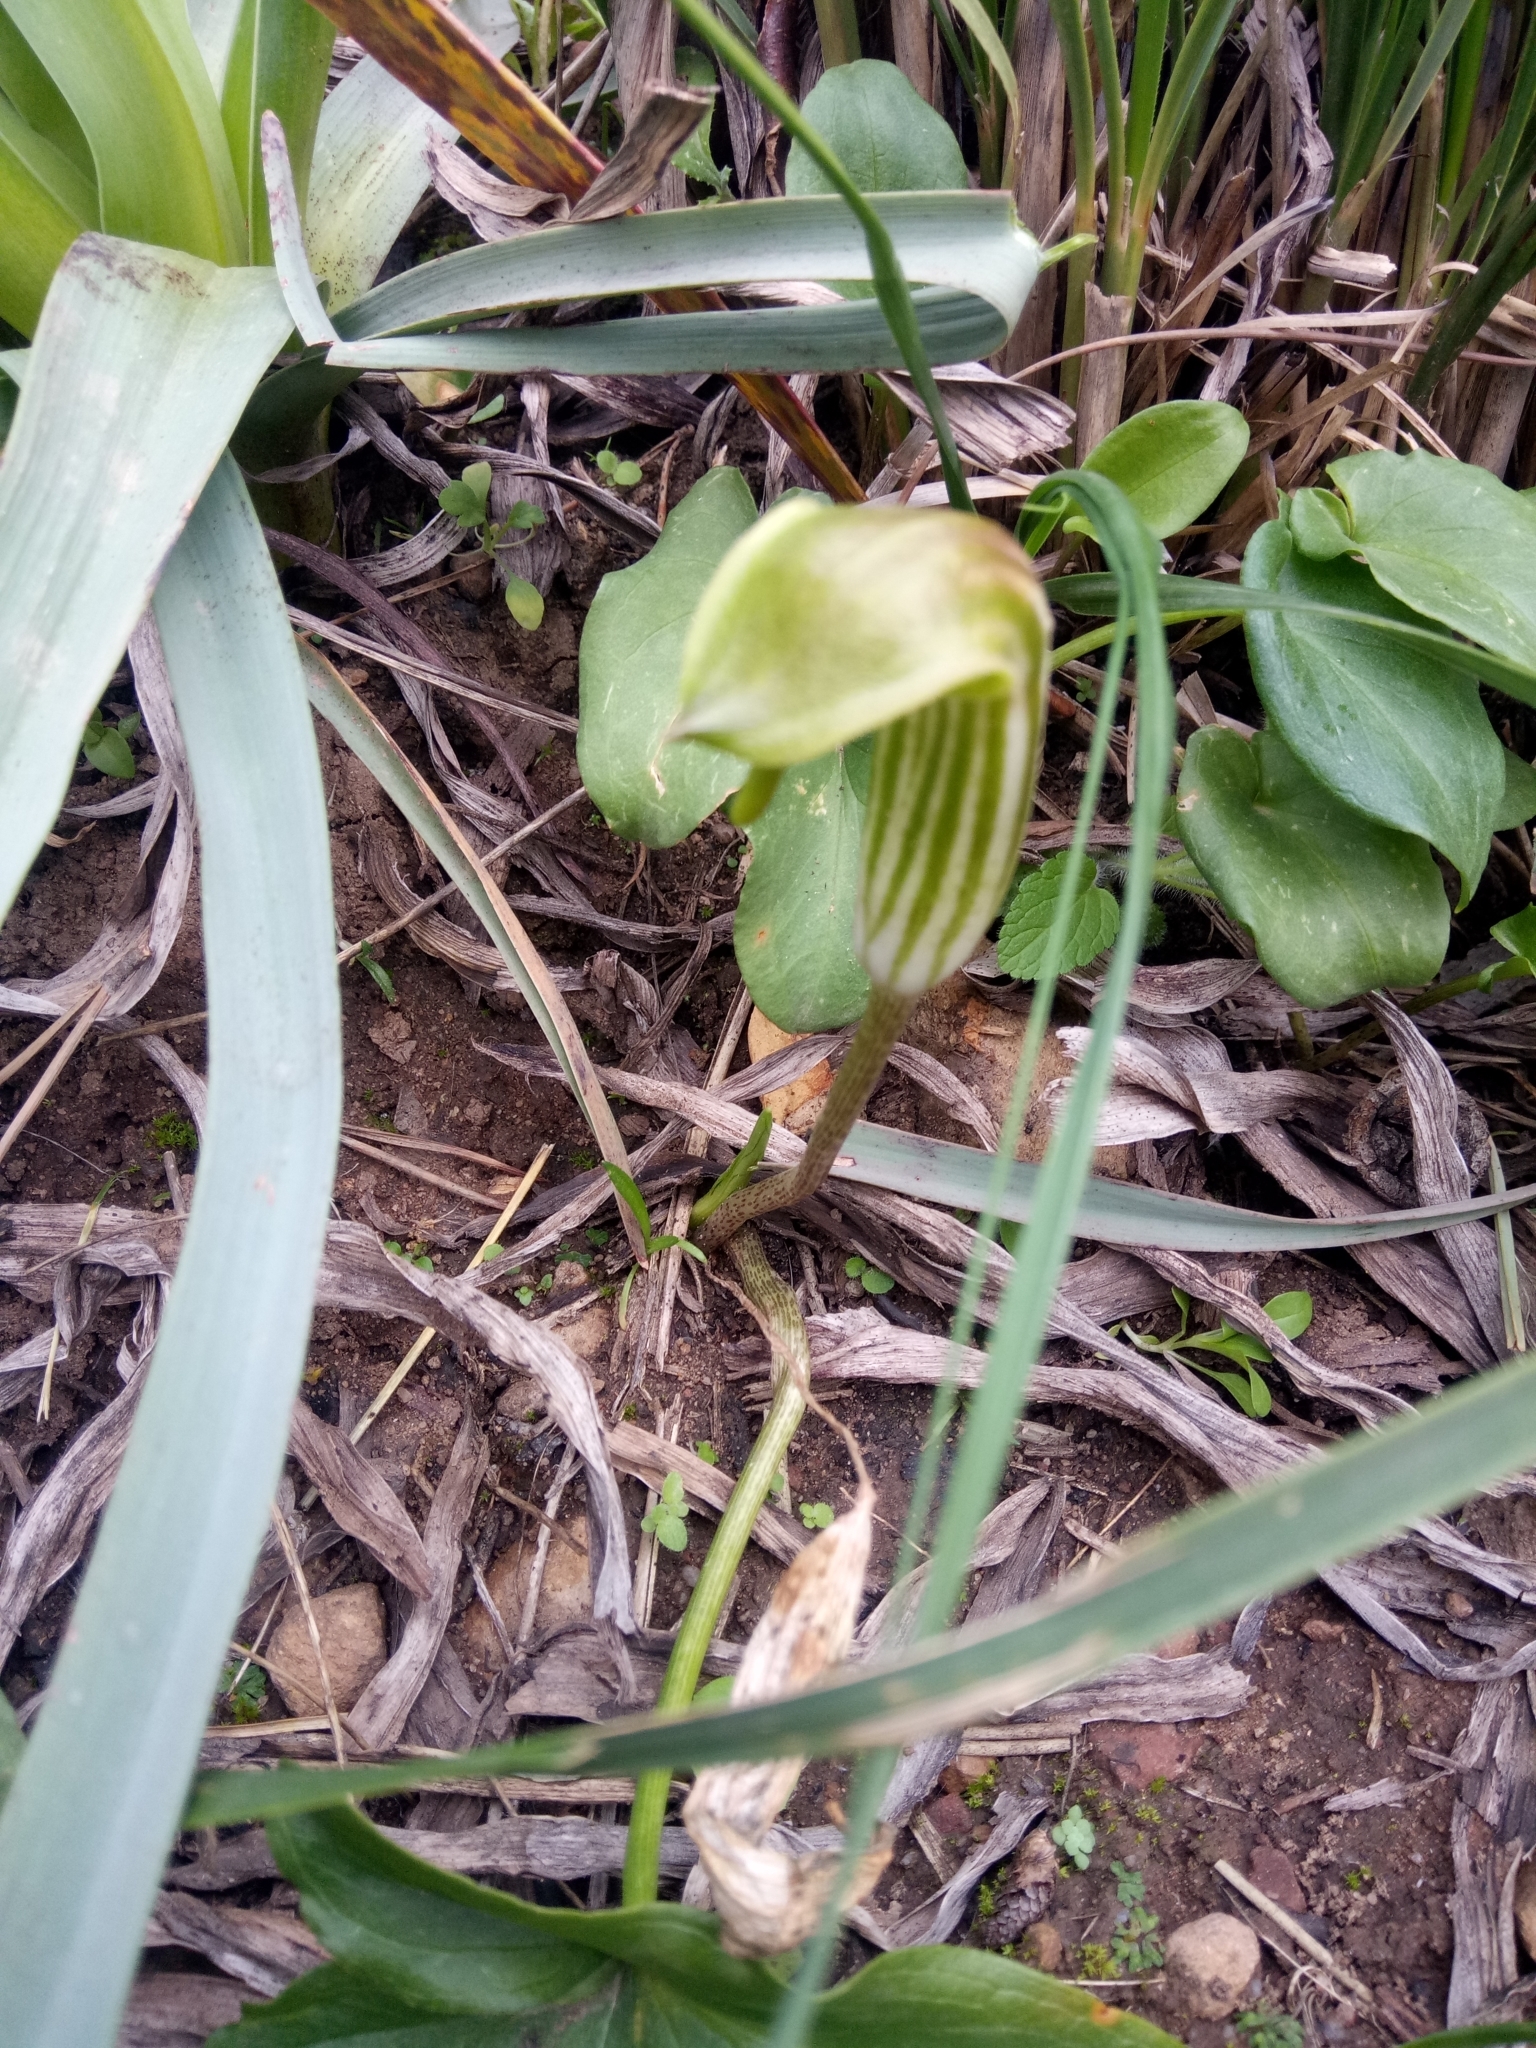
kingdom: Plantae
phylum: Tracheophyta
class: Liliopsida
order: Alismatales
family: Araceae
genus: Arisarum
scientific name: Arisarum vulgare
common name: Common arisarum
